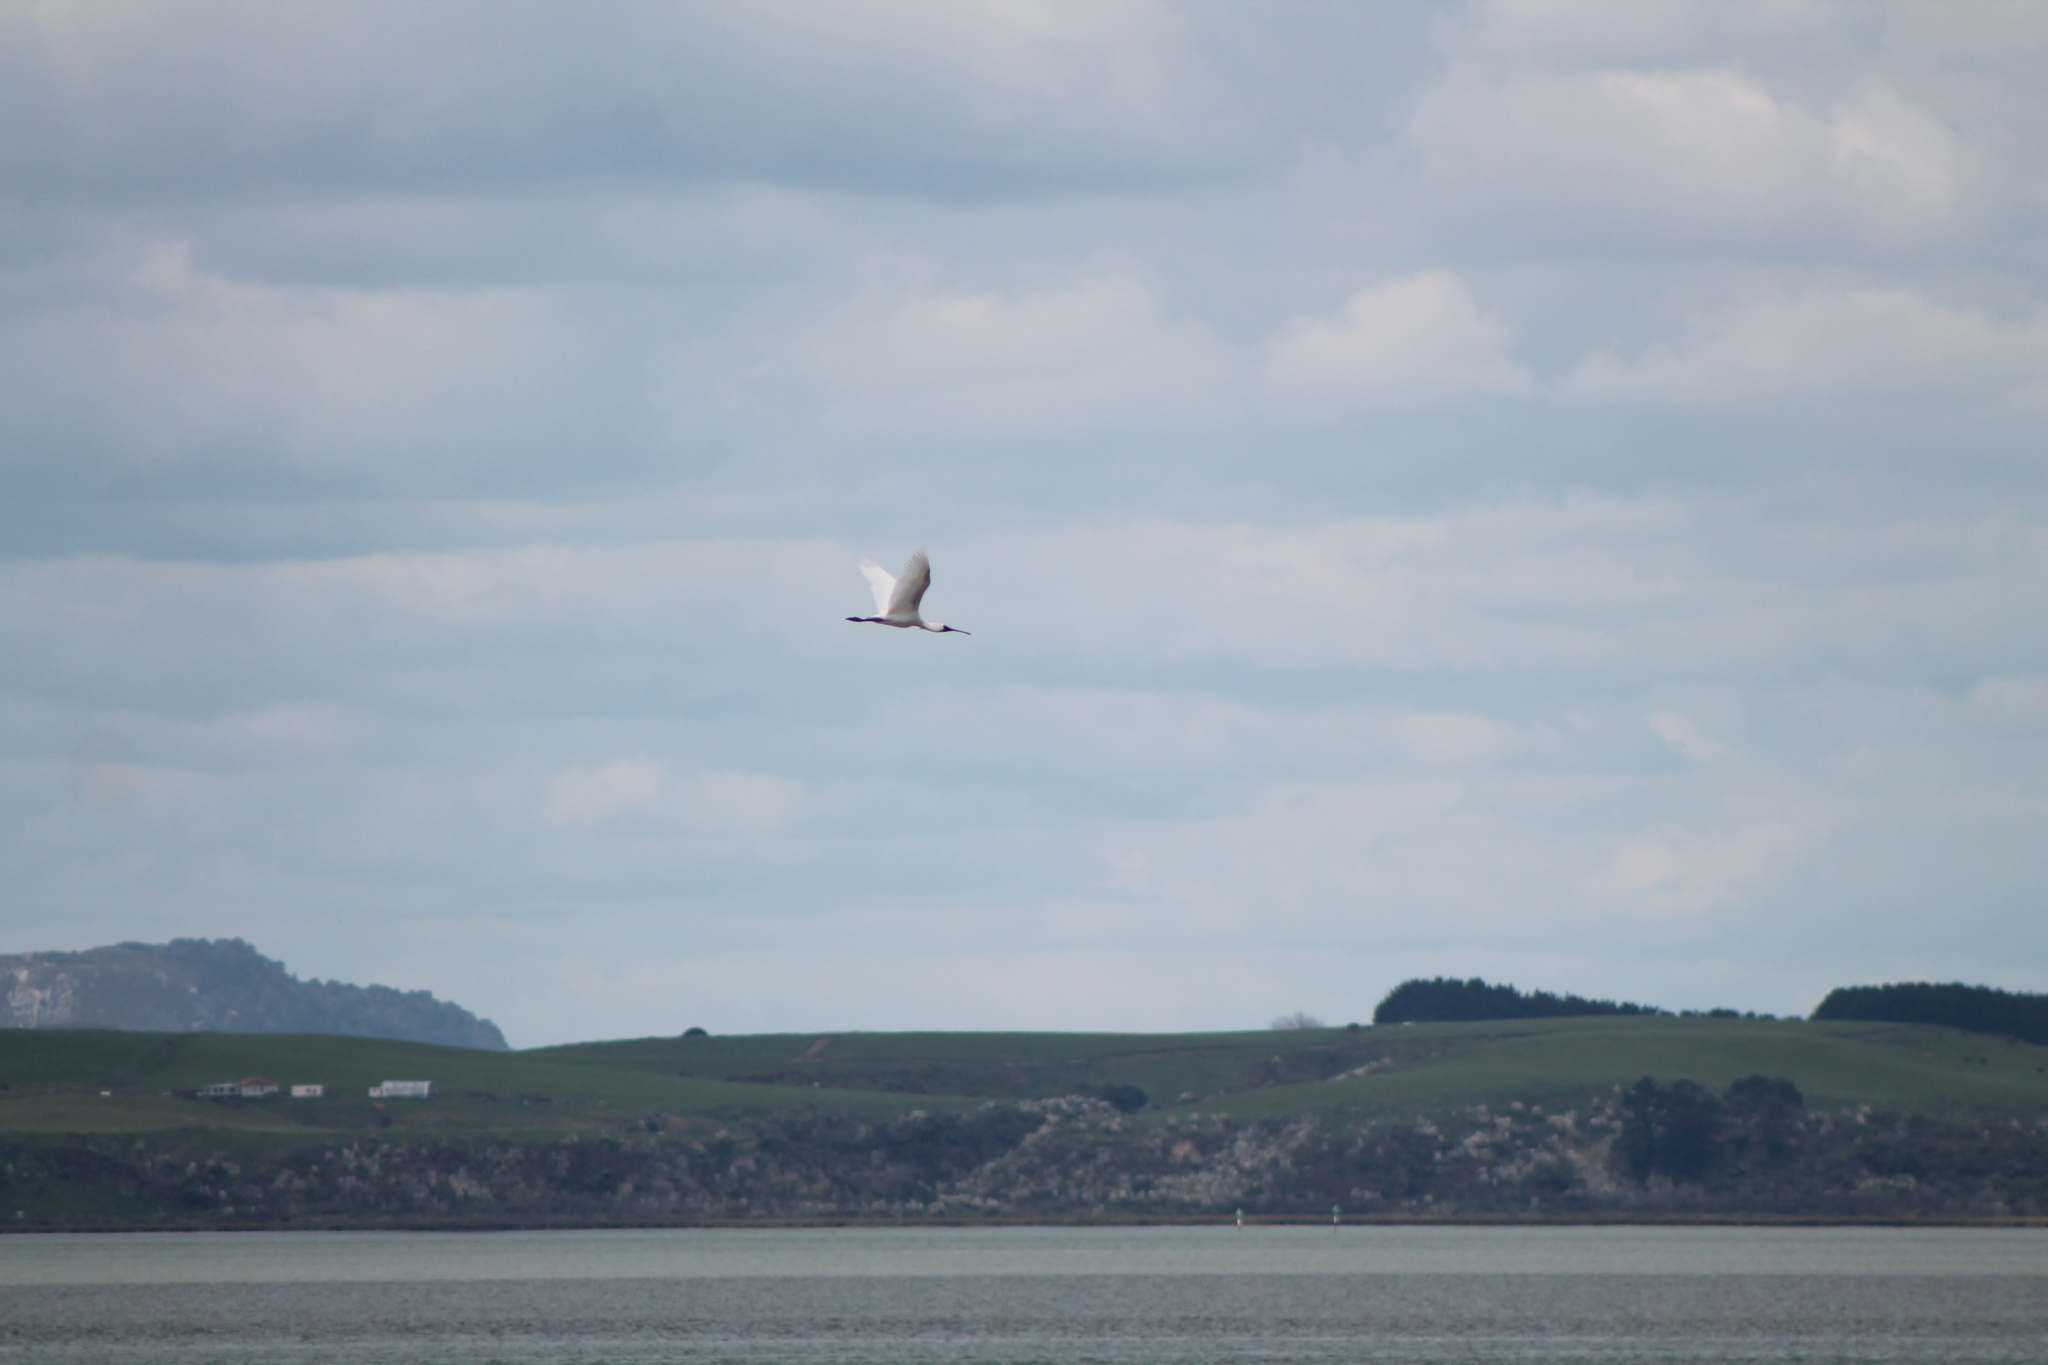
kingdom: Animalia
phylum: Chordata
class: Aves
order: Pelecaniformes
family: Threskiornithidae
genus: Platalea
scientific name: Platalea regia
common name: Royal spoonbill
